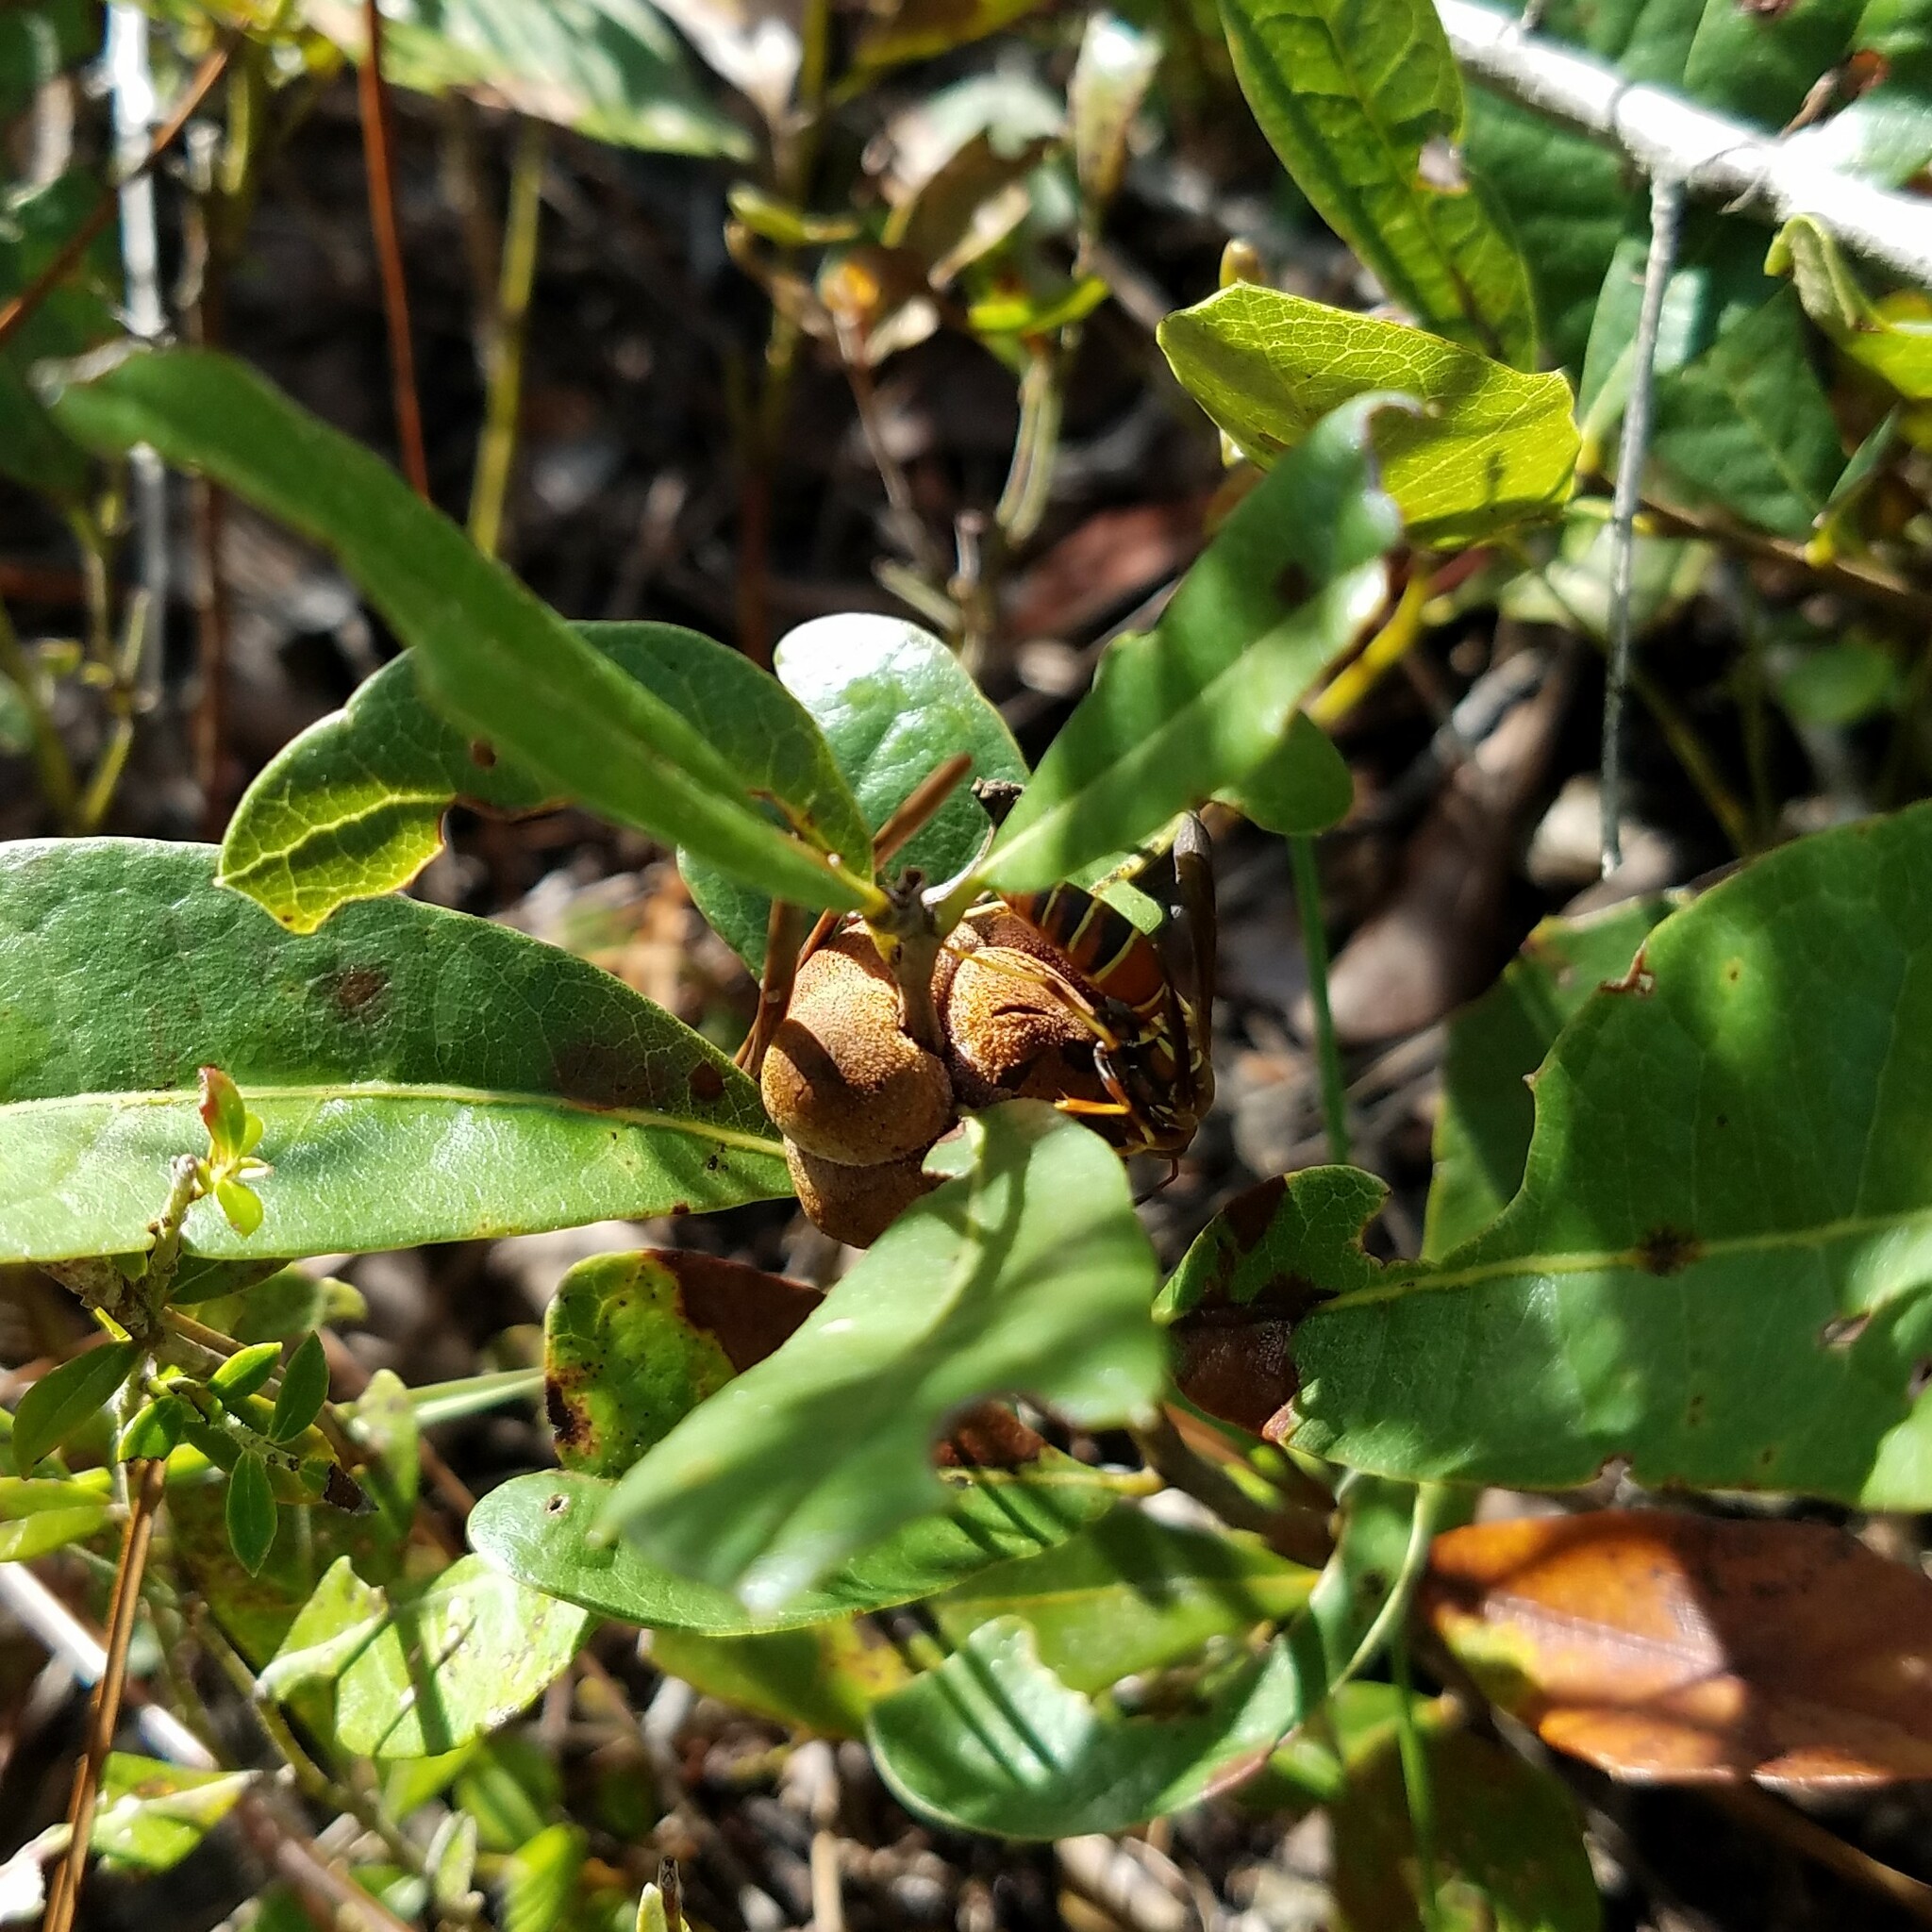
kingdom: Animalia
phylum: Arthropoda
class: Insecta
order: Hymenoptera
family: Eumenidae
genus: Polistes
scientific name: Polistes dorsalis
